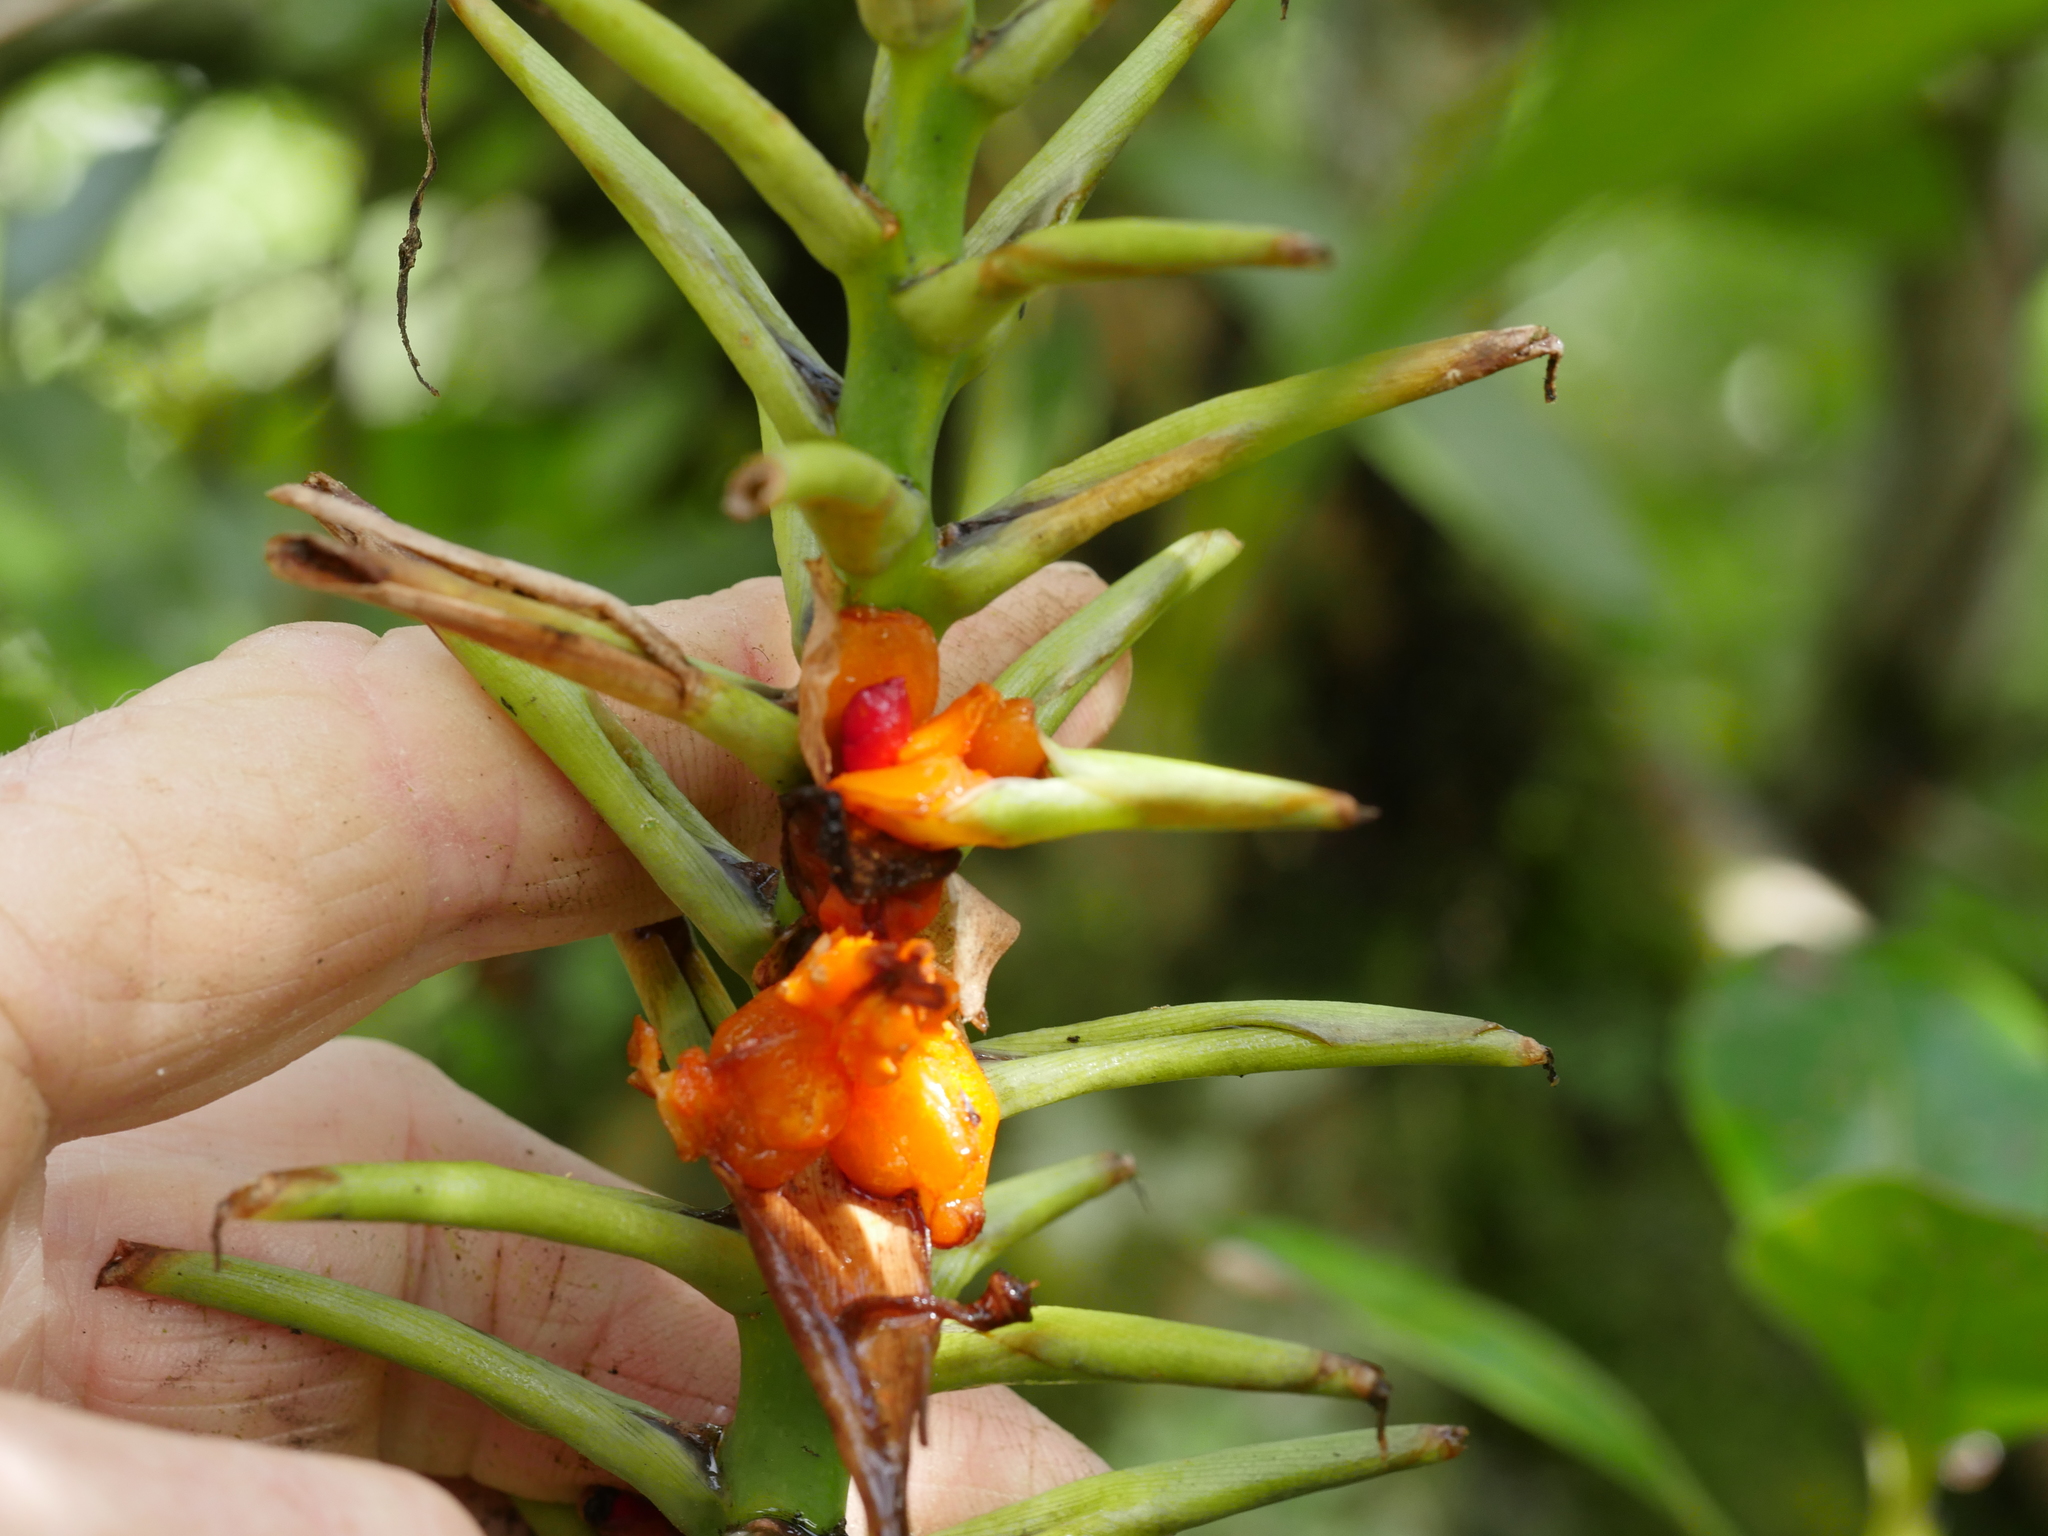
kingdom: Plantae
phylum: Tracheophyta
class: Liliopsida
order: Zingiberales
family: Zingiberaceae
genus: Hedychium
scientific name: Hedychium gardnerianum
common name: Himalayan ginger
